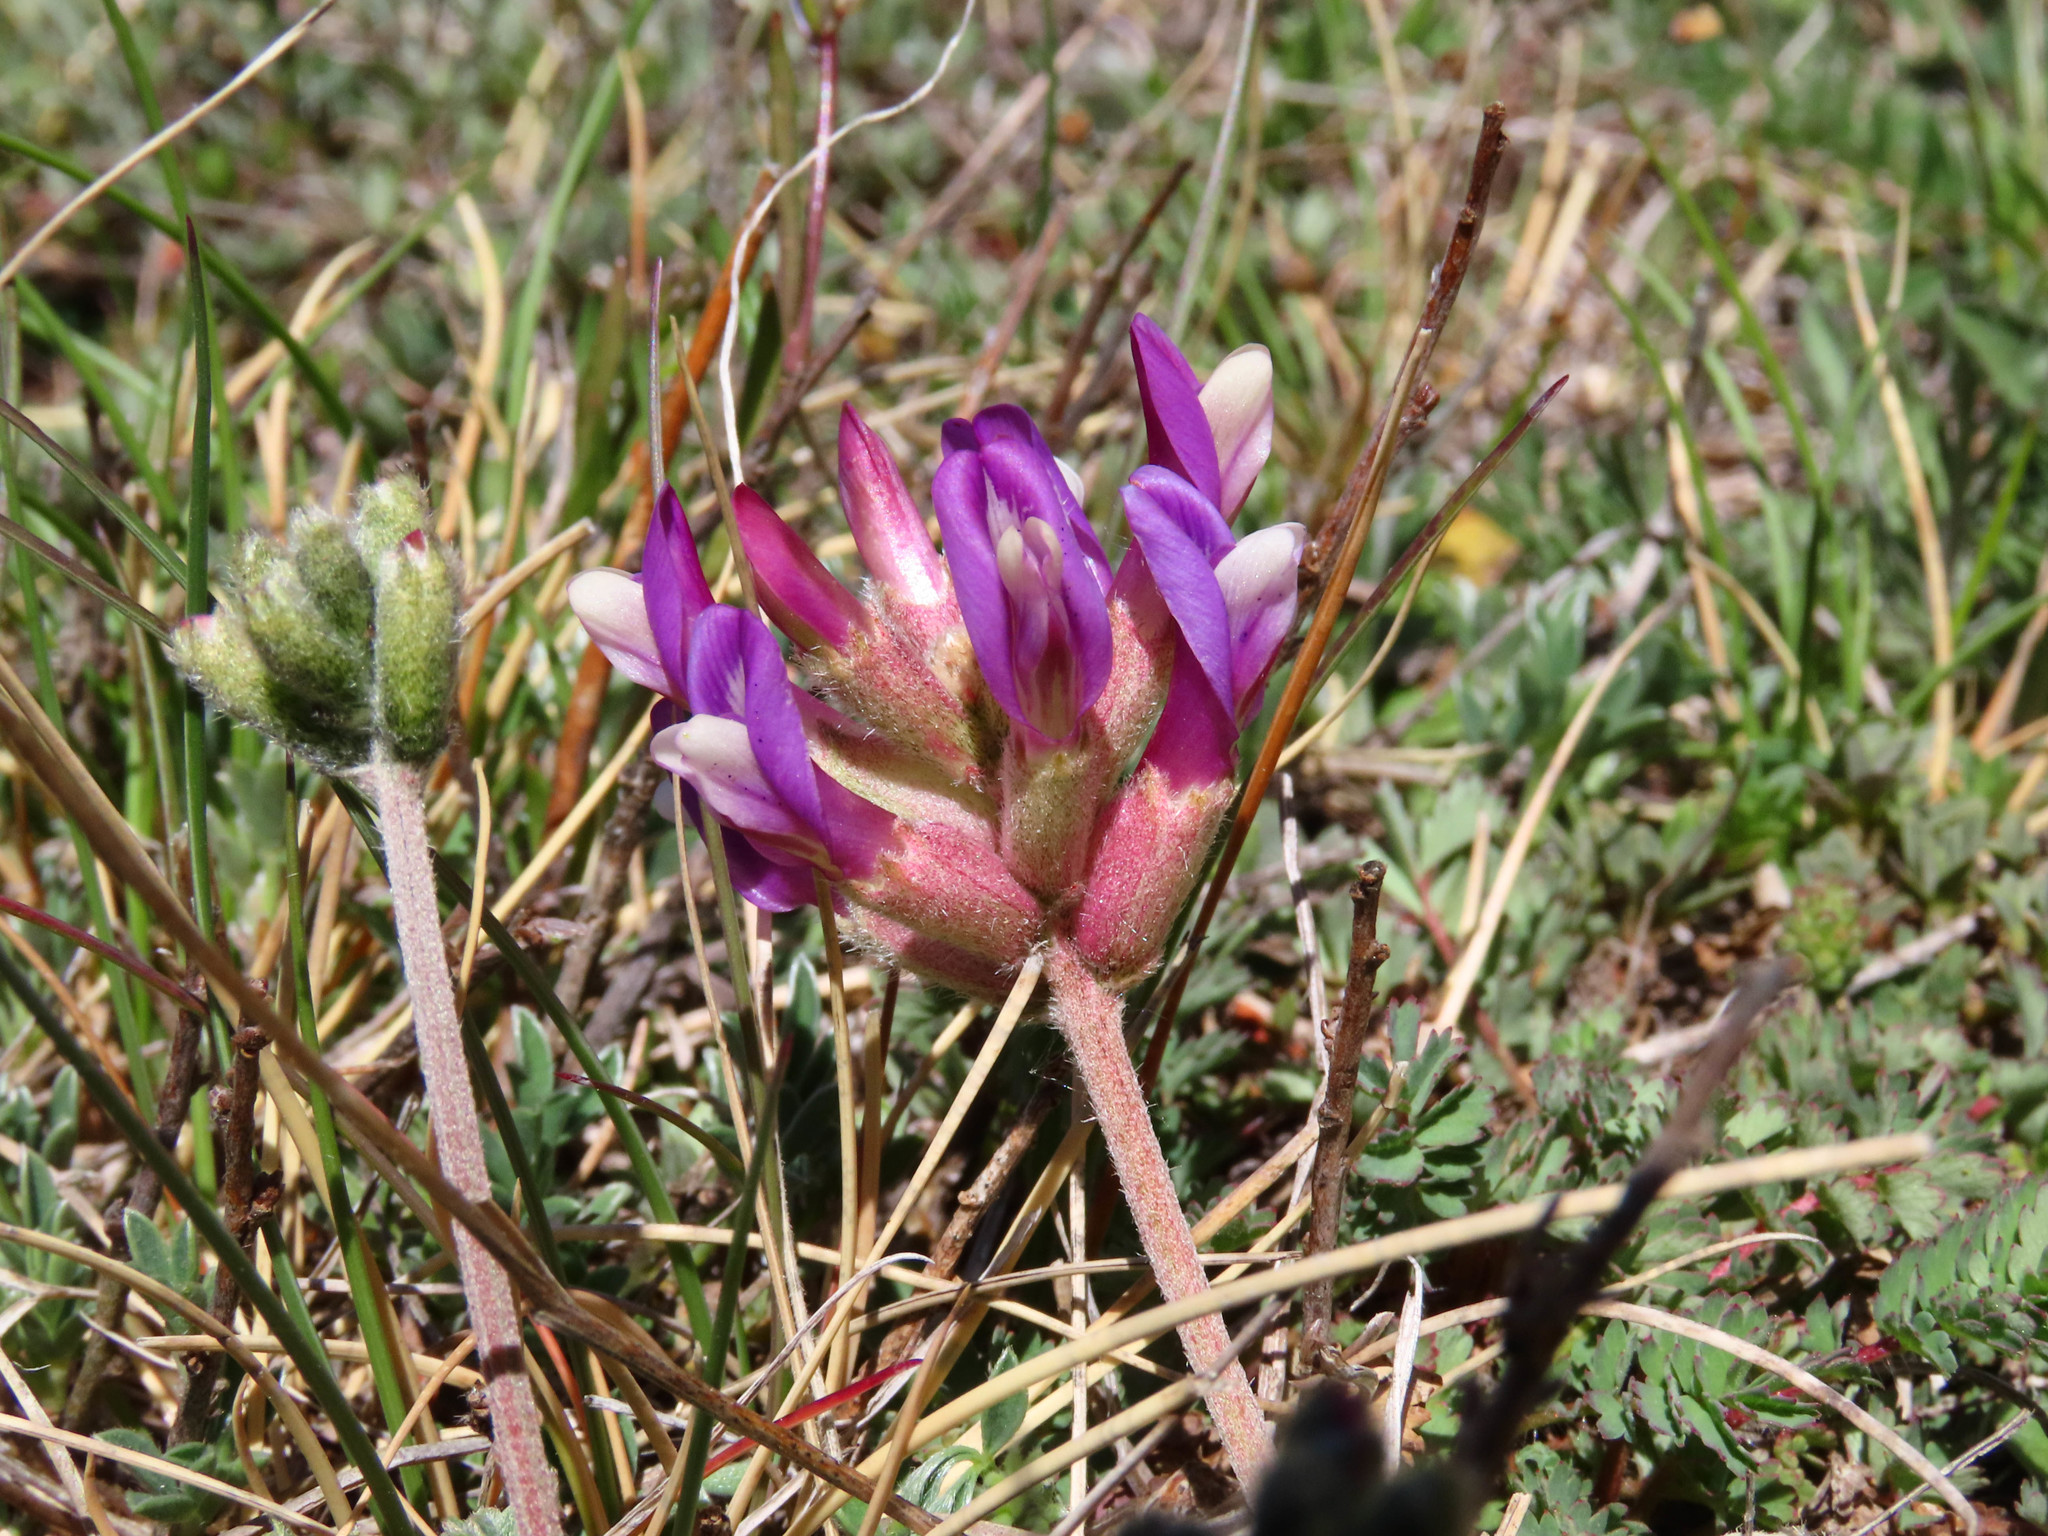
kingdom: Plantae
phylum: Tracheophyta
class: Magnoliopsida
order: Fabales
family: Fabaceae
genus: Astragalus
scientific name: Astragalus vesicarius
